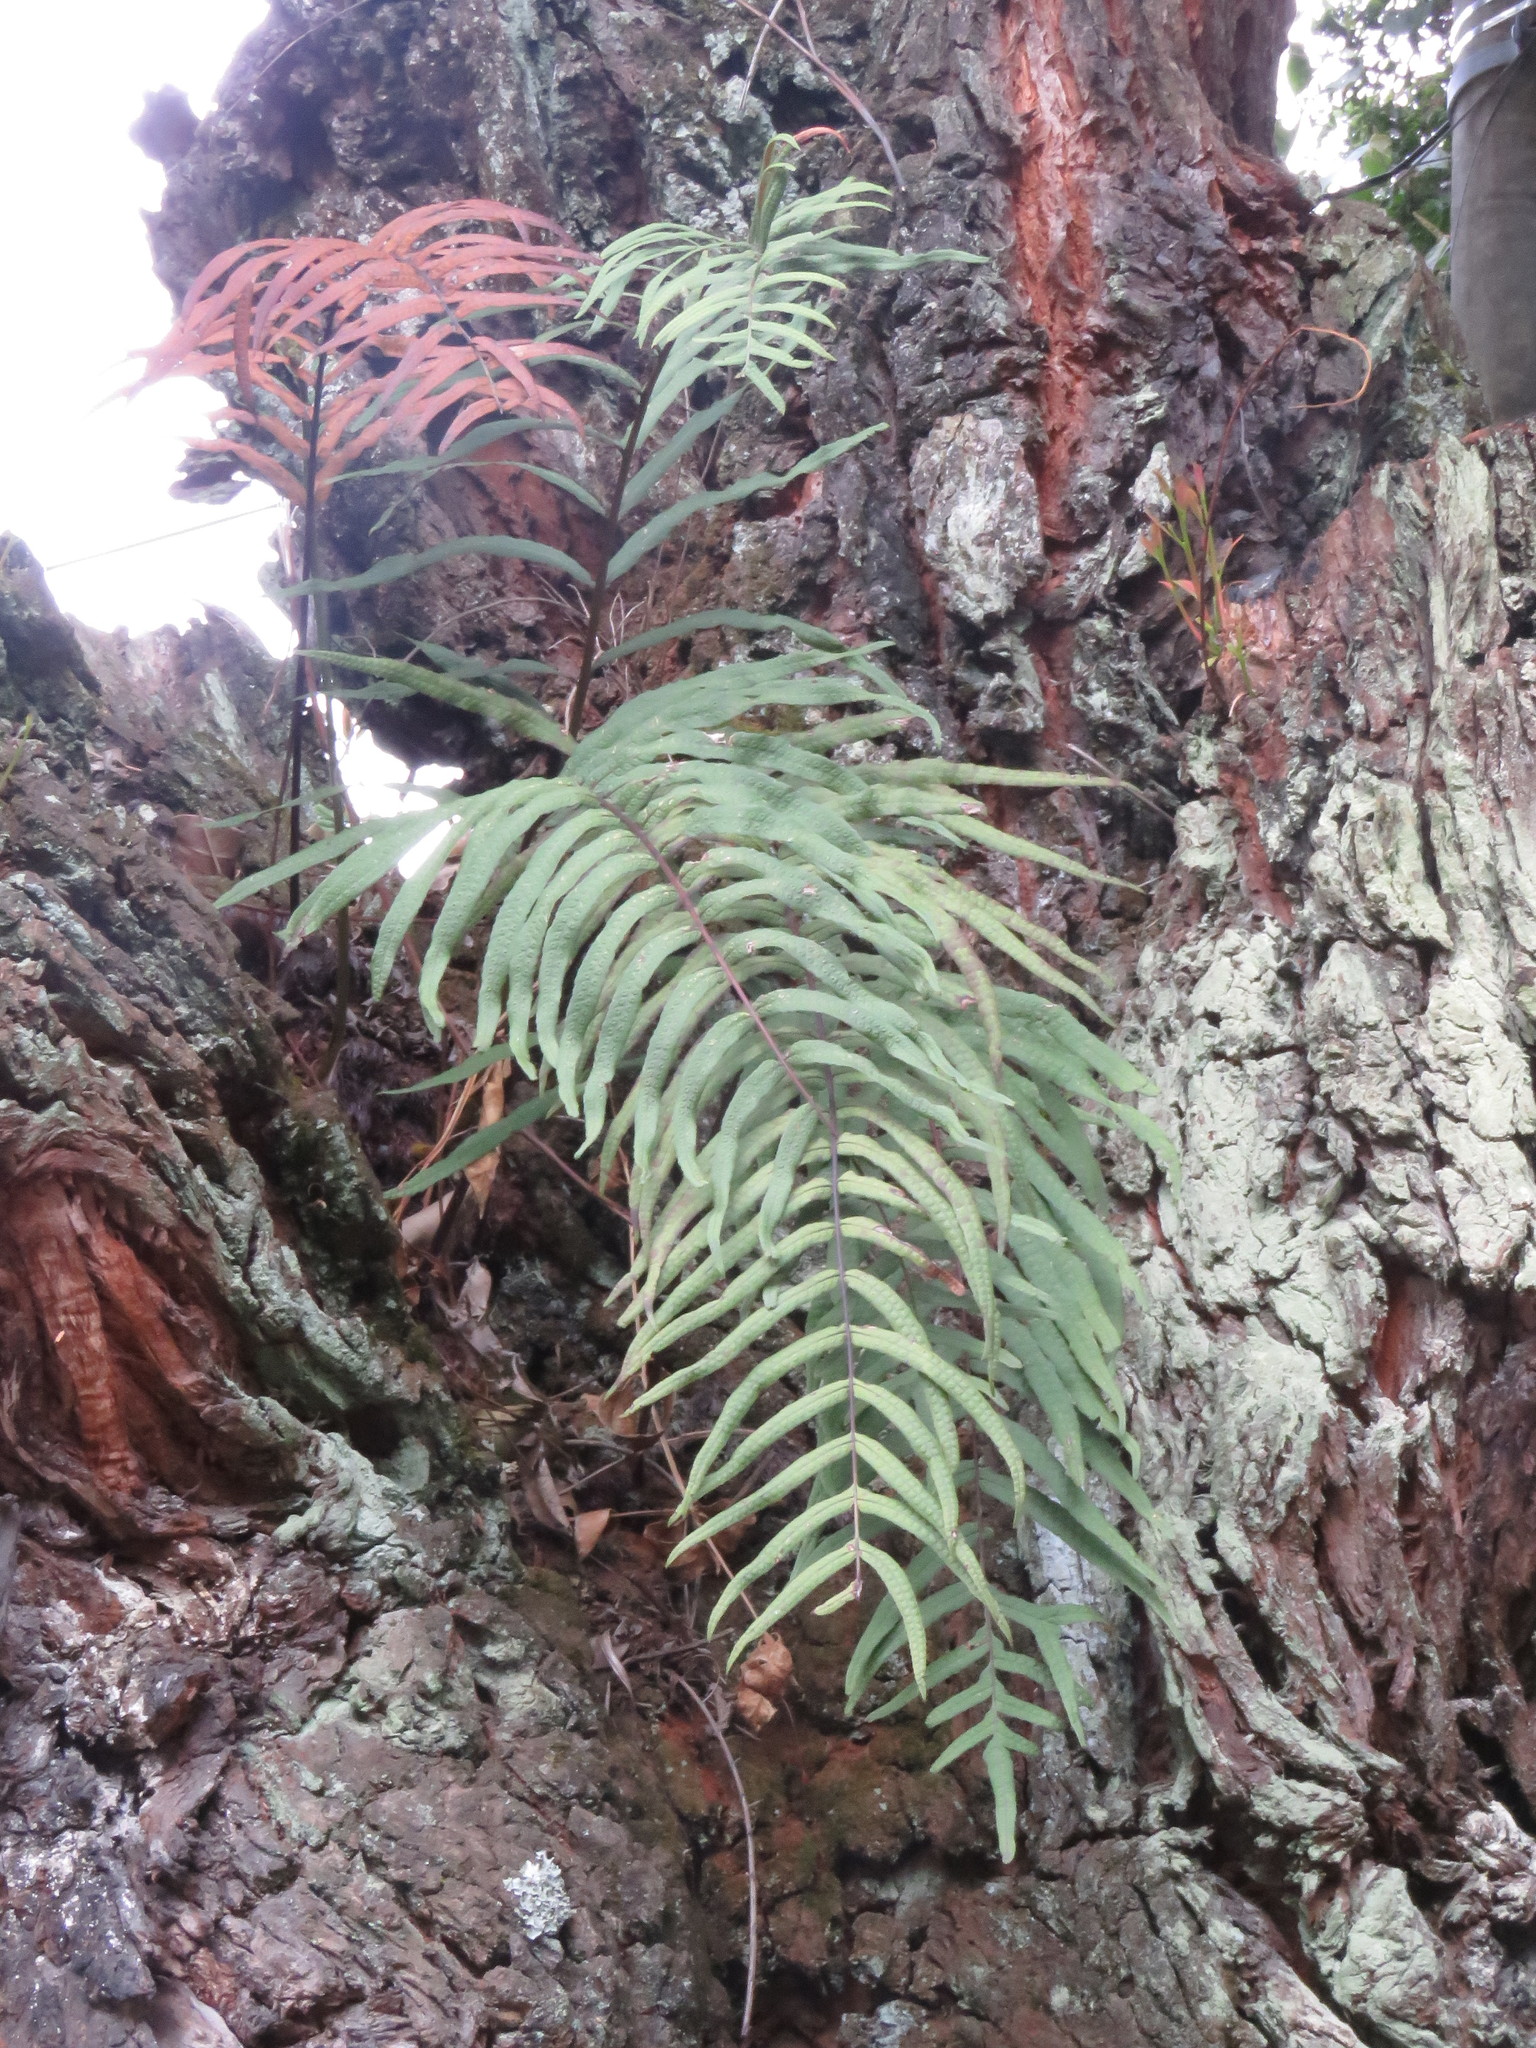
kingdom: Plantae
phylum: Tracheophyta
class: Polypodiopsida
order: Polypodiales
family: Polypodiaceae
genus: Serpocaulon
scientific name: Serpocaulon sessilifolium
